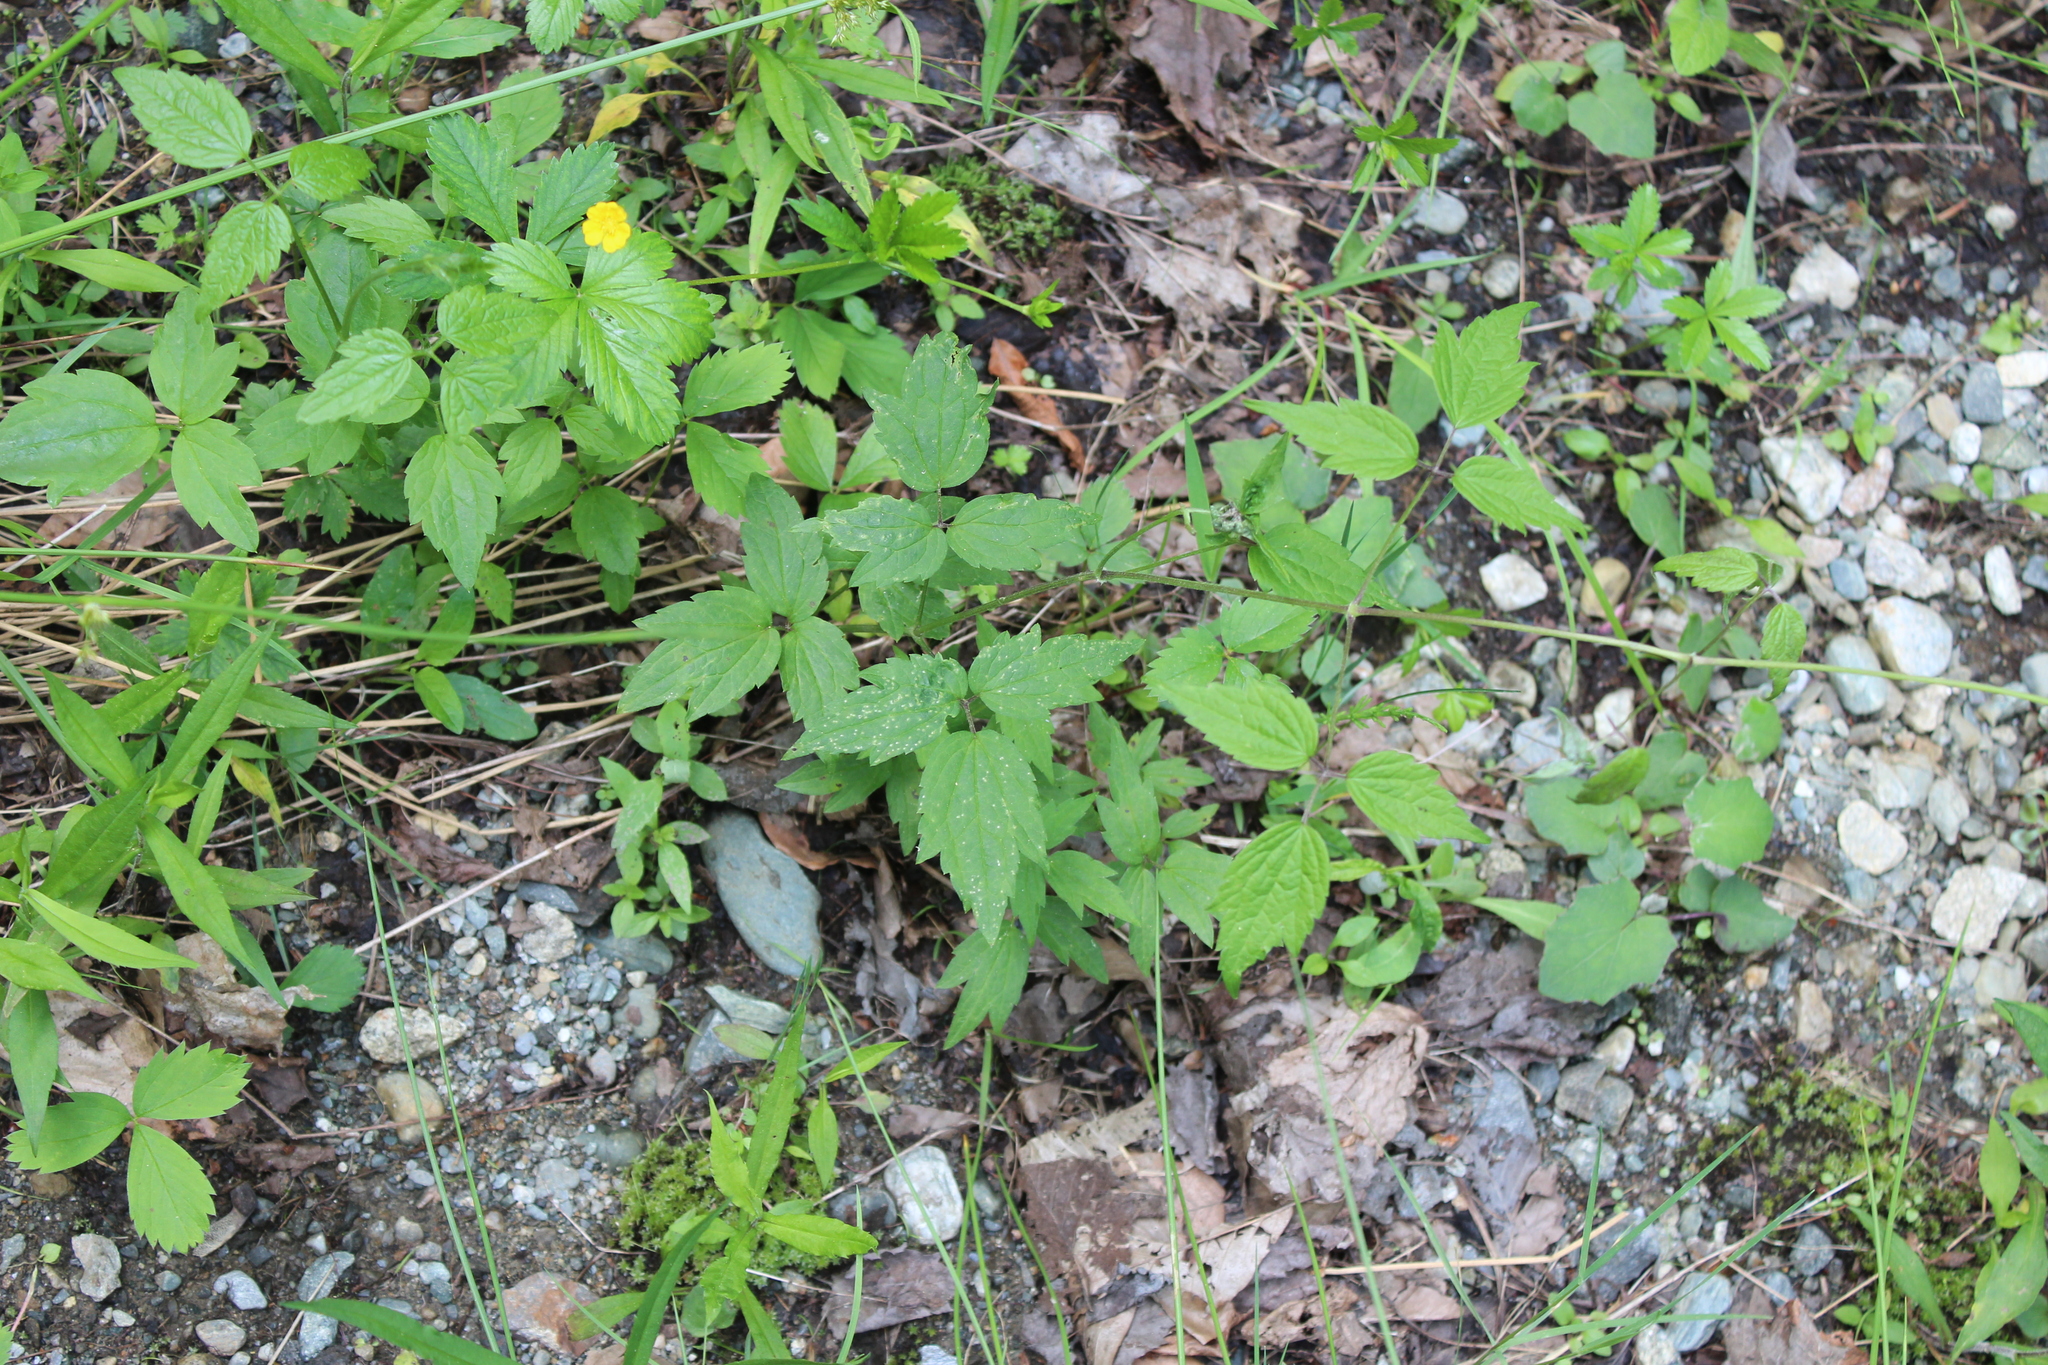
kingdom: Plantae
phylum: Tracheophyta
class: Magnoliopsida
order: Ranunculales
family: Ranunculaceae
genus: Clematis
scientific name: Clematis virginiana
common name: Virgin's-bower
